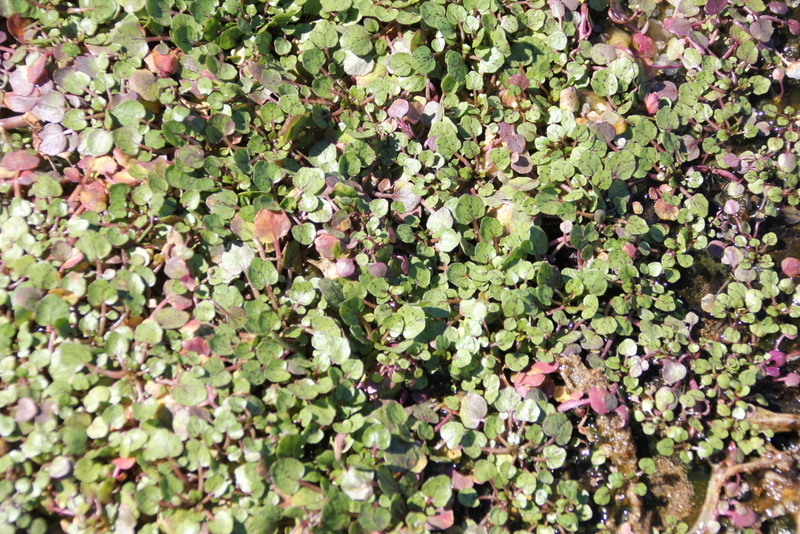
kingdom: Plantae
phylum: Tracheophyta
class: Magnoliopsida
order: Brassicales
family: Brassicaceae
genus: Nasturtium
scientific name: Nasturtium officinale
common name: Watercress
